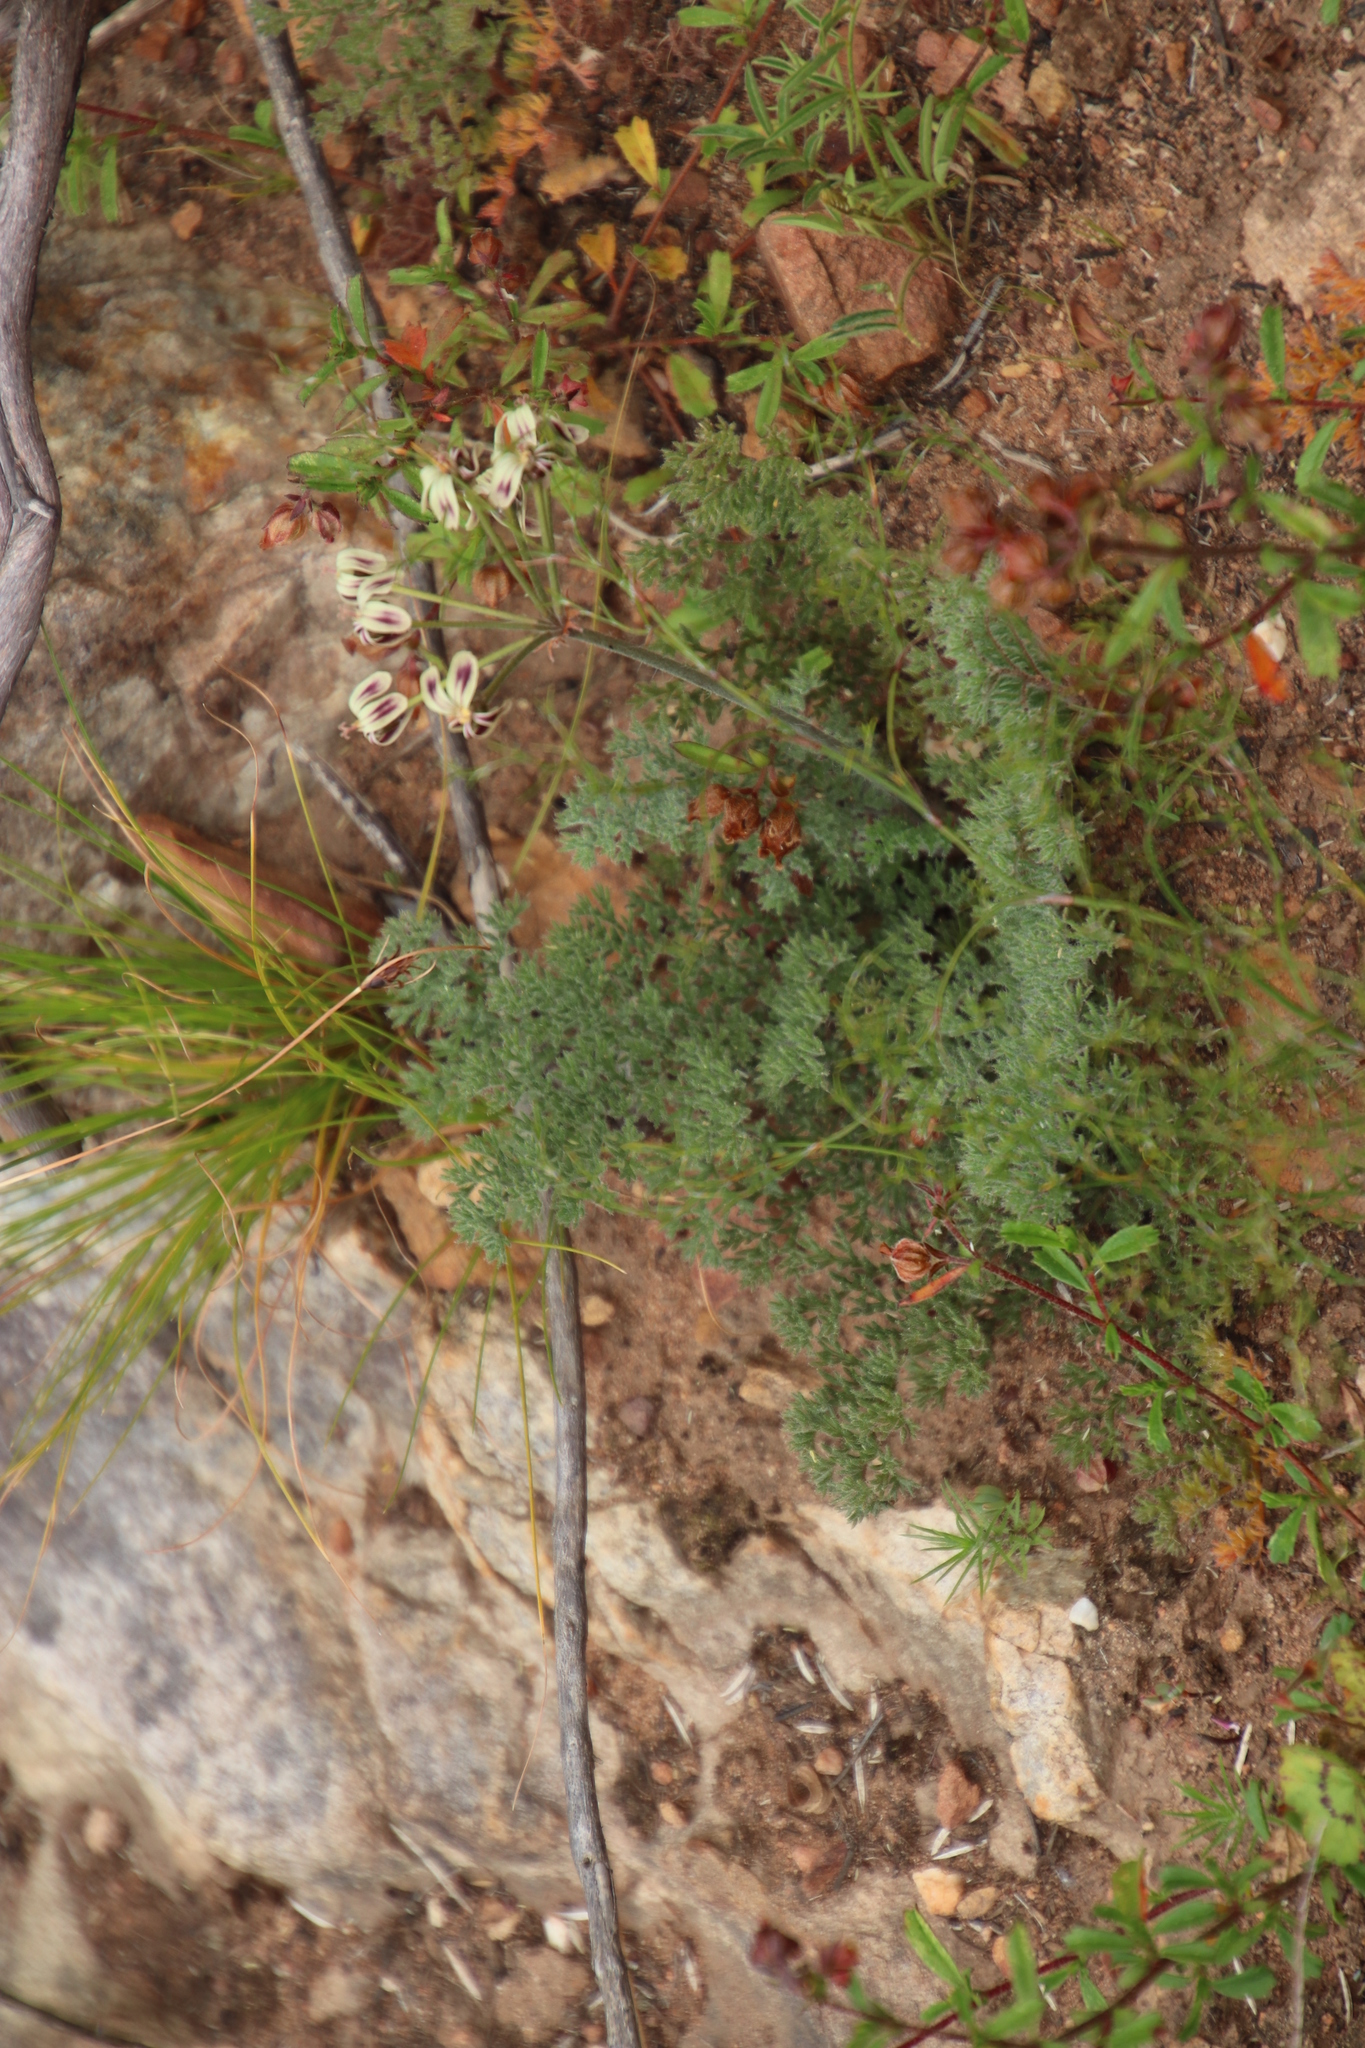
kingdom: Plantae
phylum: Tracheophyta
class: Magnoliopsida
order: Geraniales
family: Geraniaceae
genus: Pelargonium
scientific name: Pelargonium triste
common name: Night-scent pelargonium
